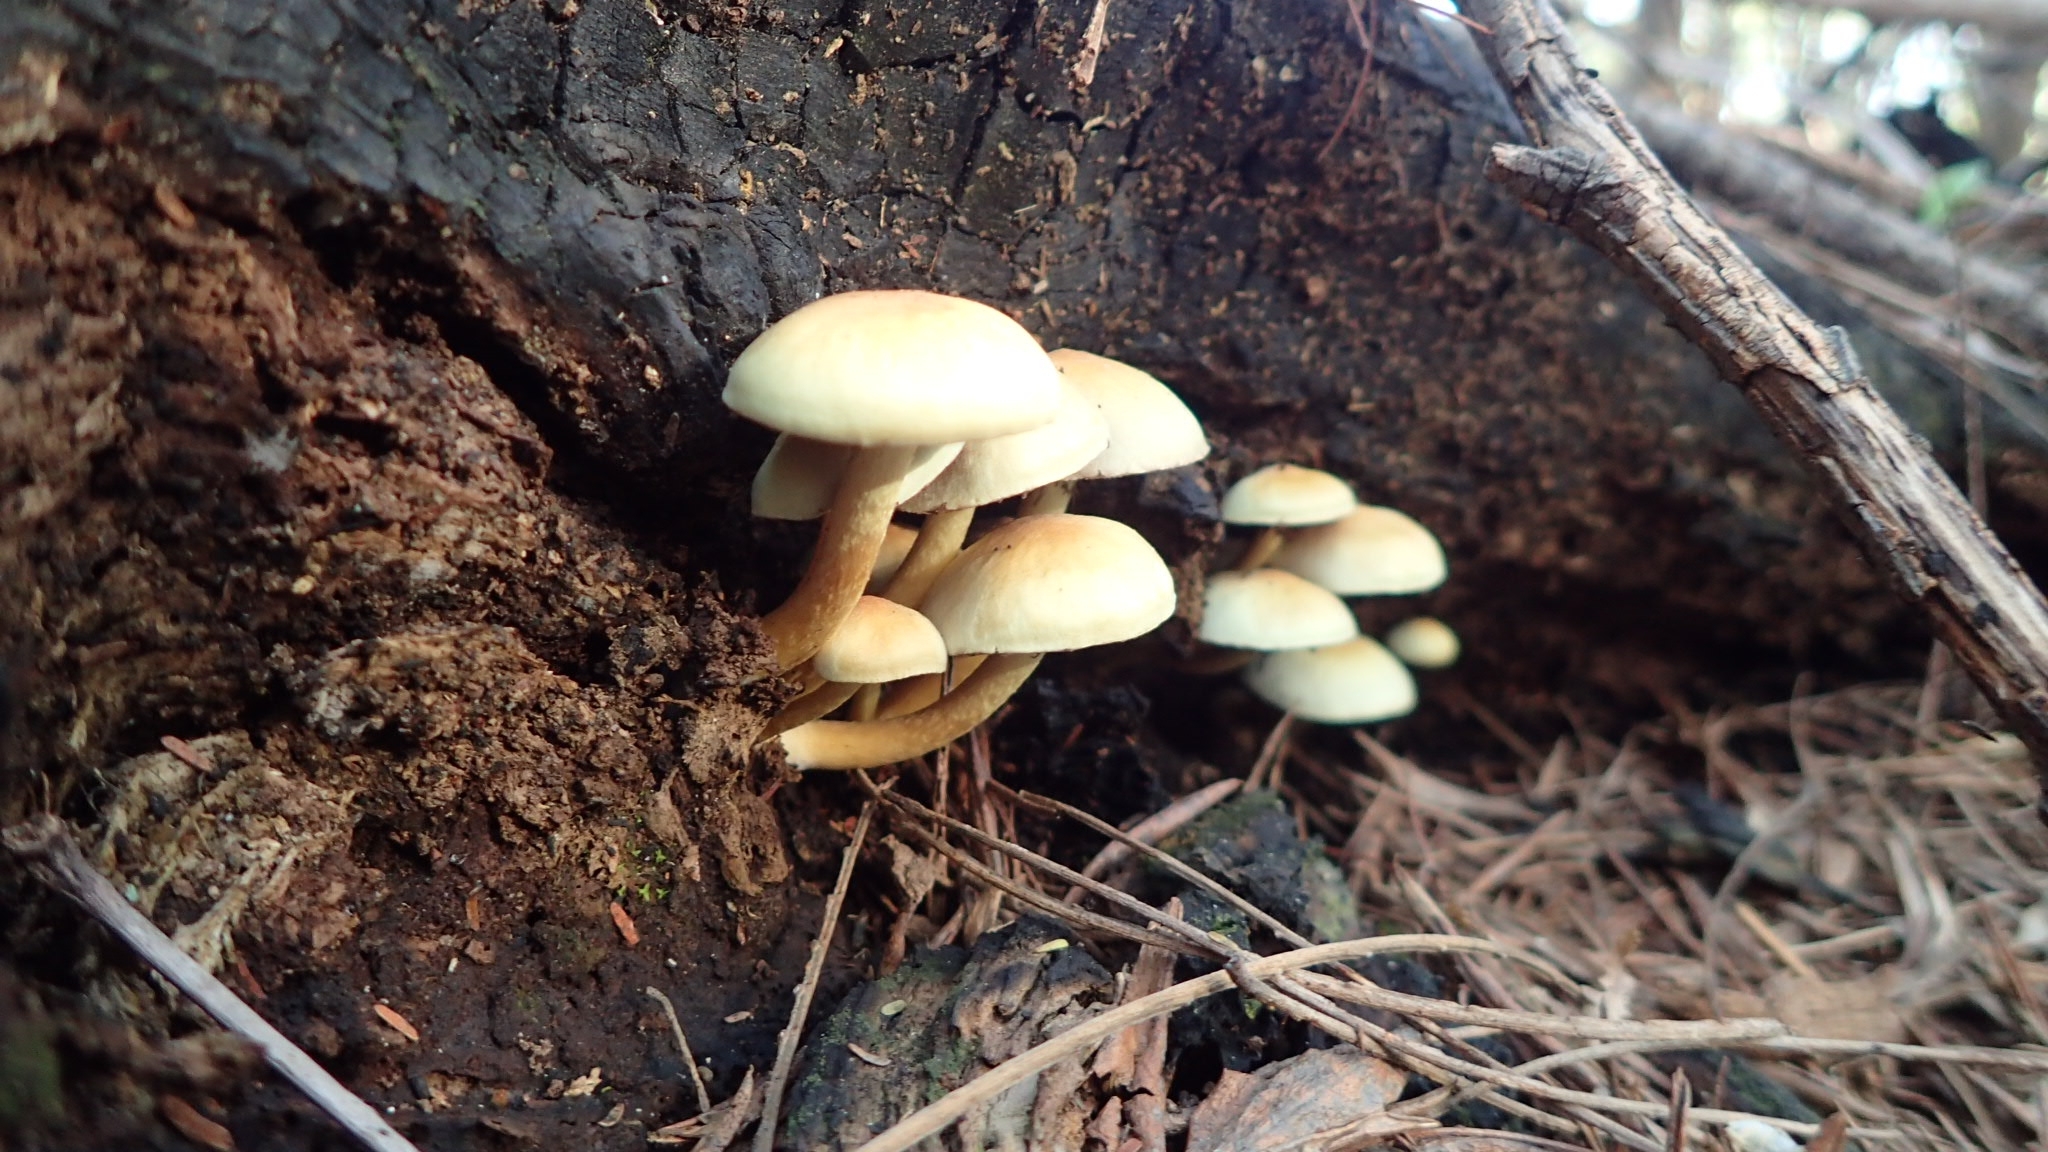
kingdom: Fungi
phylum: Basidiomycota
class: Agaricomycetes
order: Agaricales
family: Strophariaceae
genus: Hypholoma
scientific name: Hypholoma fasciculare
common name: Sulphur tuft
